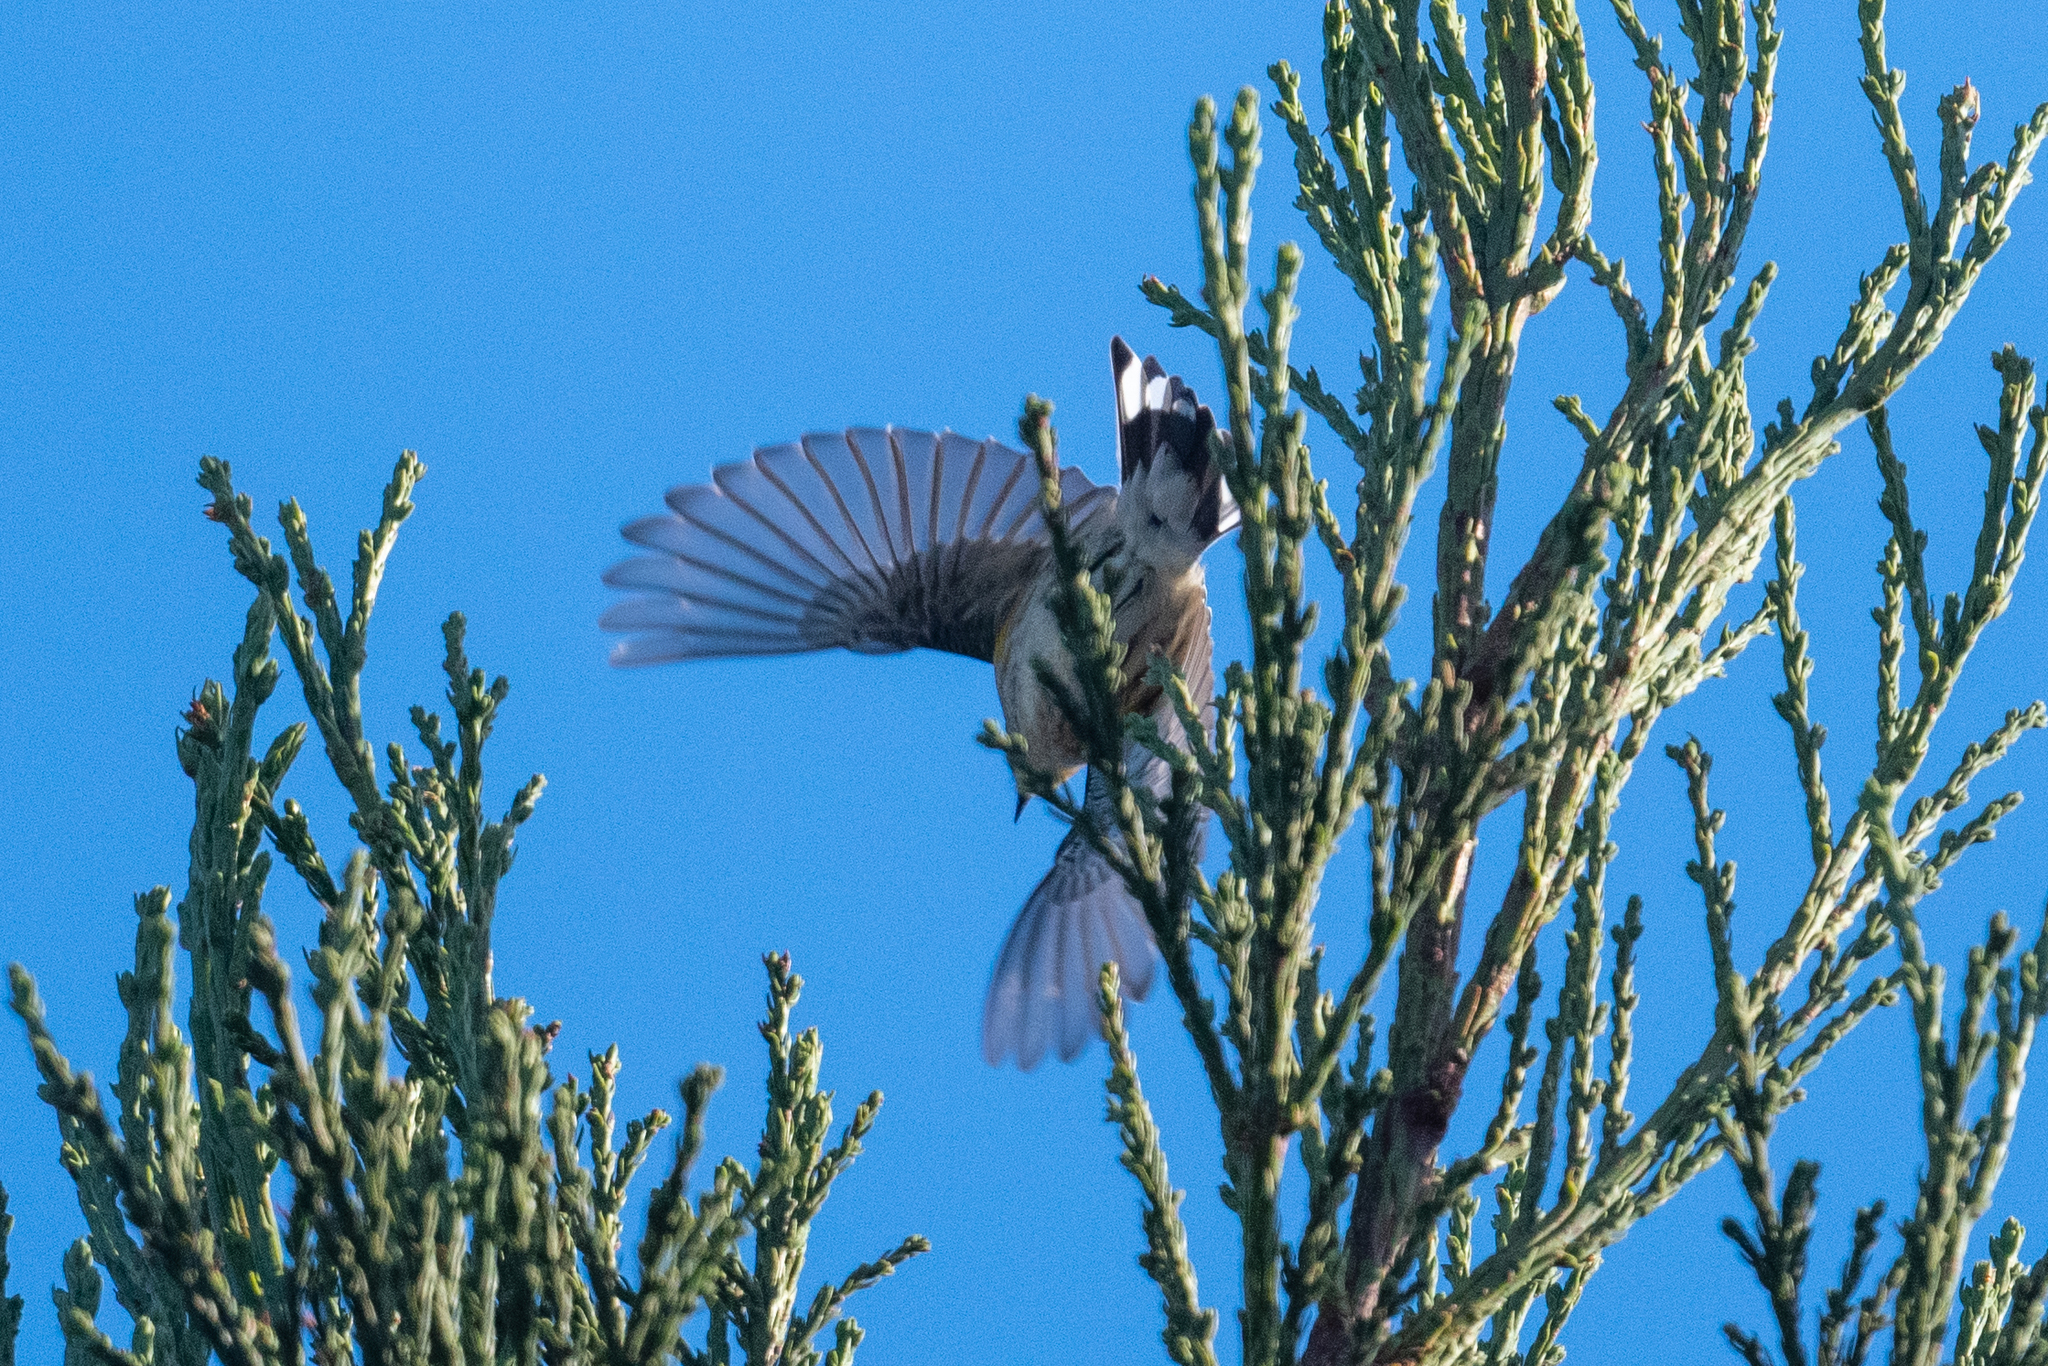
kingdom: Animalia
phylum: Chordata
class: Aves
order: Passeriformes
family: Parulidae
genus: Setophaga
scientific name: Setophaga coronata
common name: Myrtle warbler
